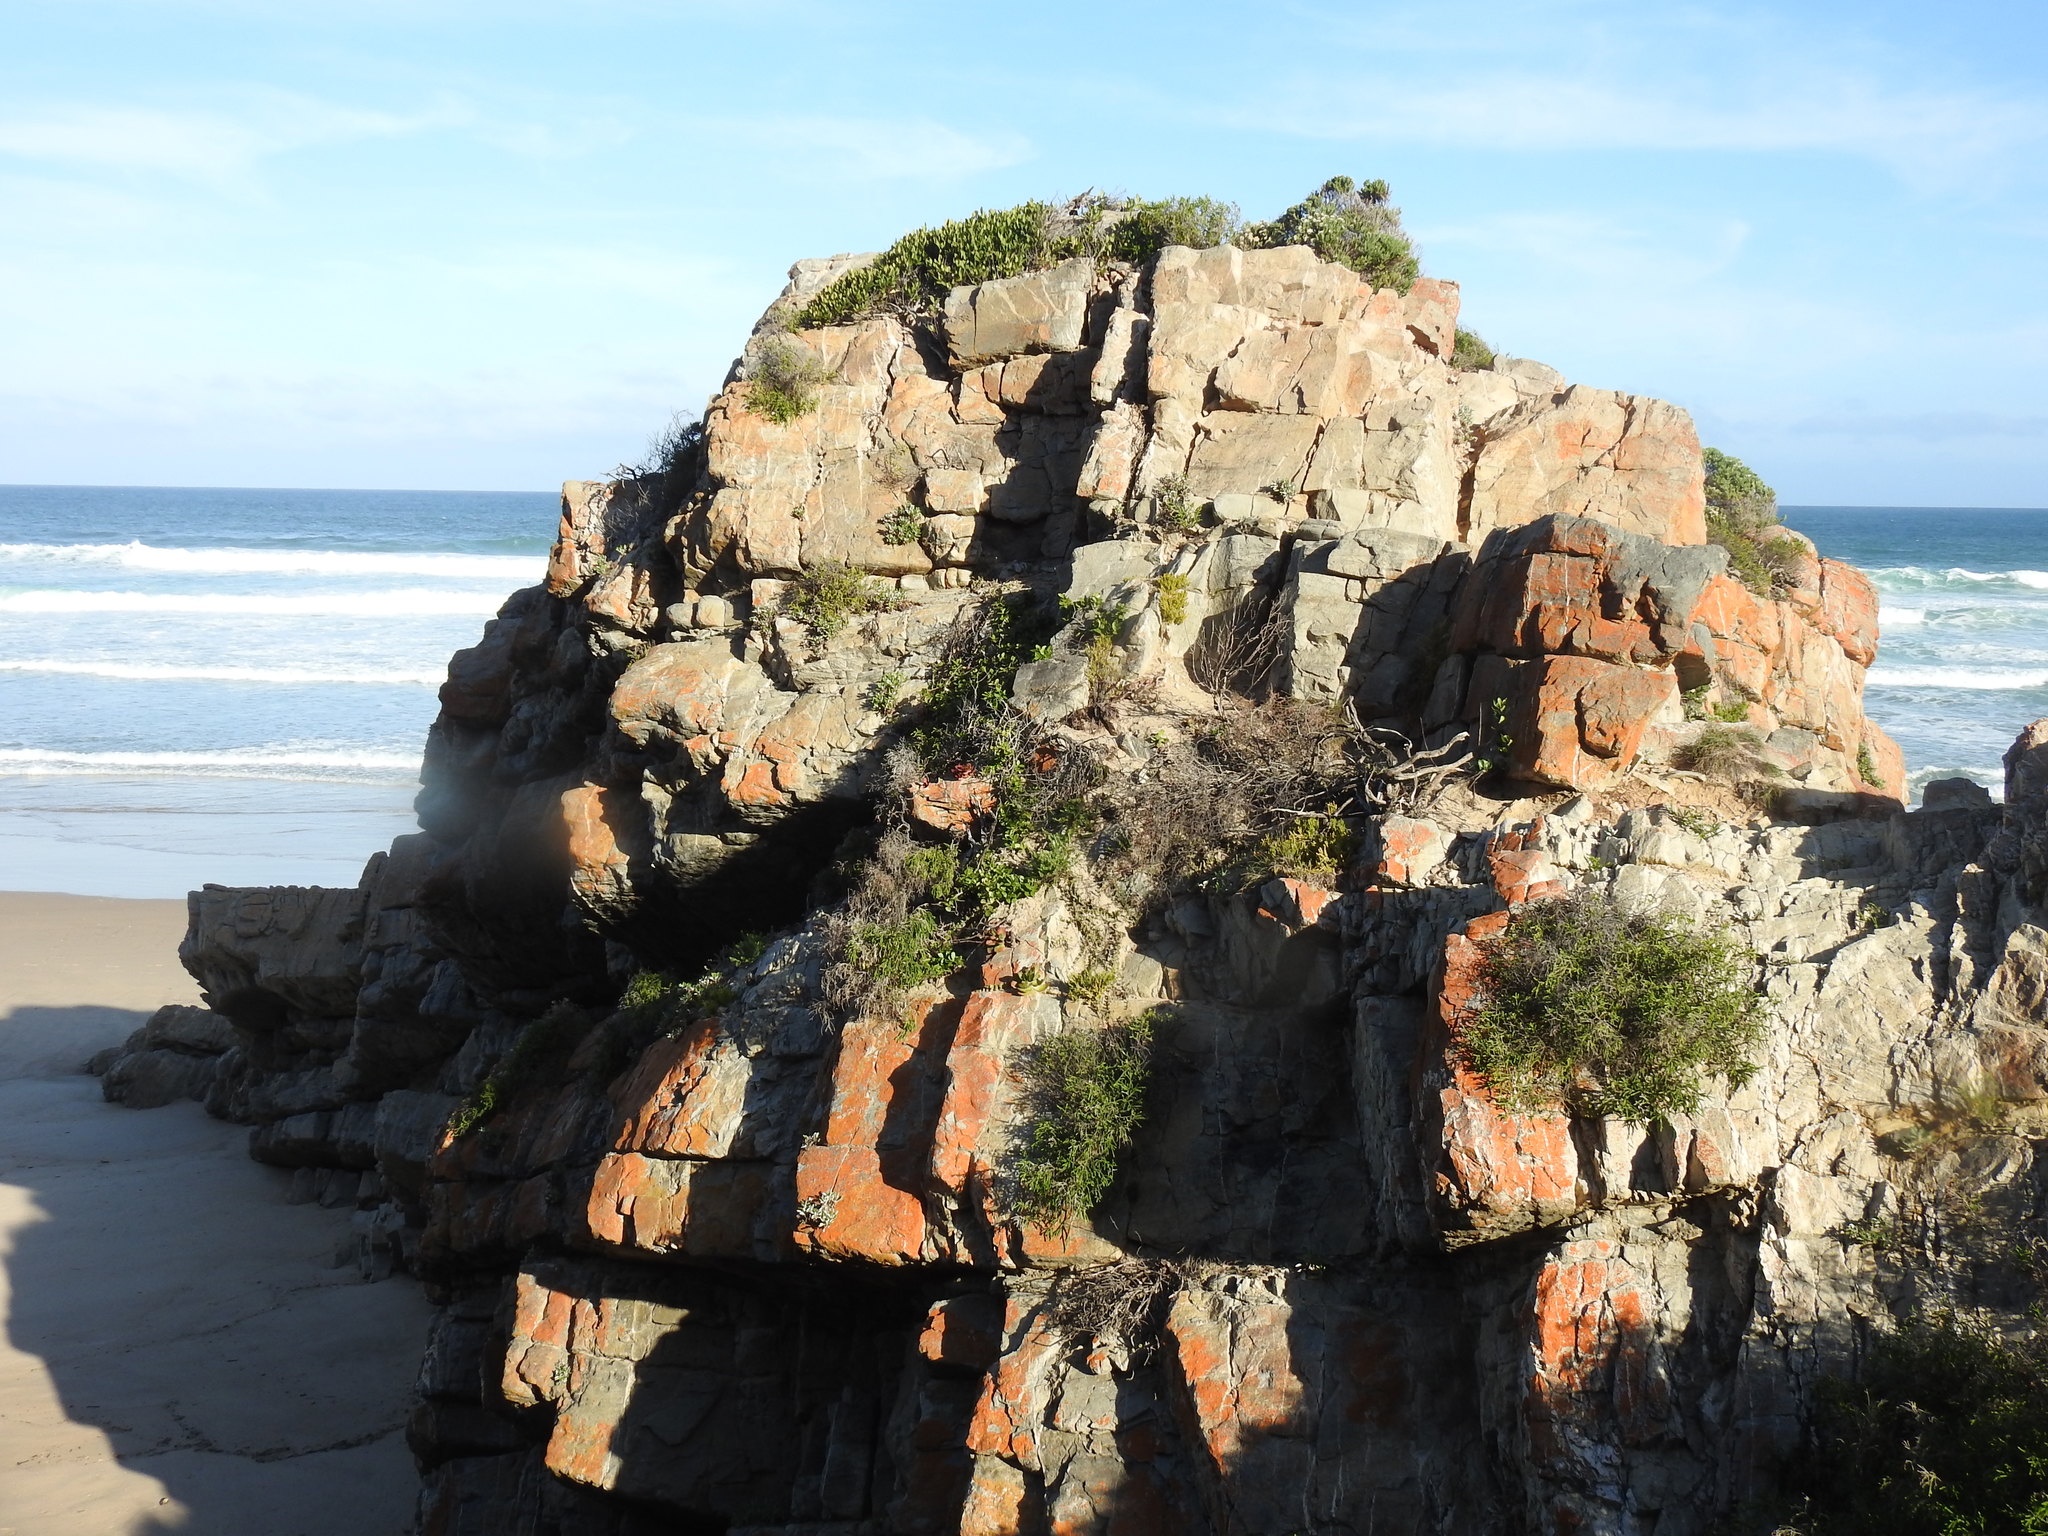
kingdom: Plantae
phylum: Tracheophyta
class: Magnoliopsida
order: Saxifragales
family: Crassulaceae
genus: Crassula
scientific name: Crassula nudicaulis
